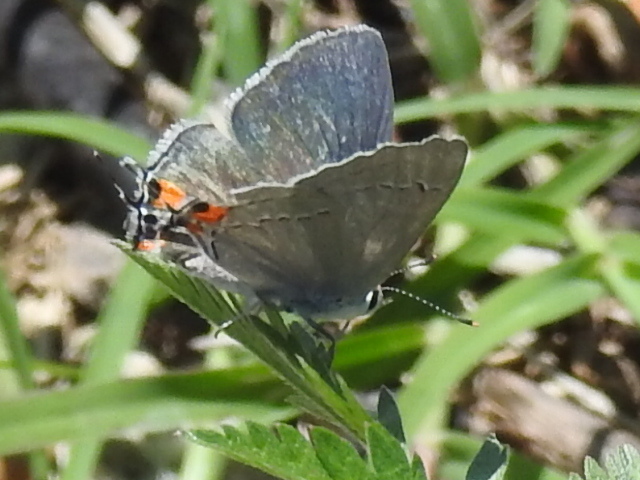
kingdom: Animalia
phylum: Arthropoda
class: Insecta
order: Lepidoptera
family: Lycaenidae
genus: Strymon
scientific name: Strymon melinus
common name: Gray hairstreak
